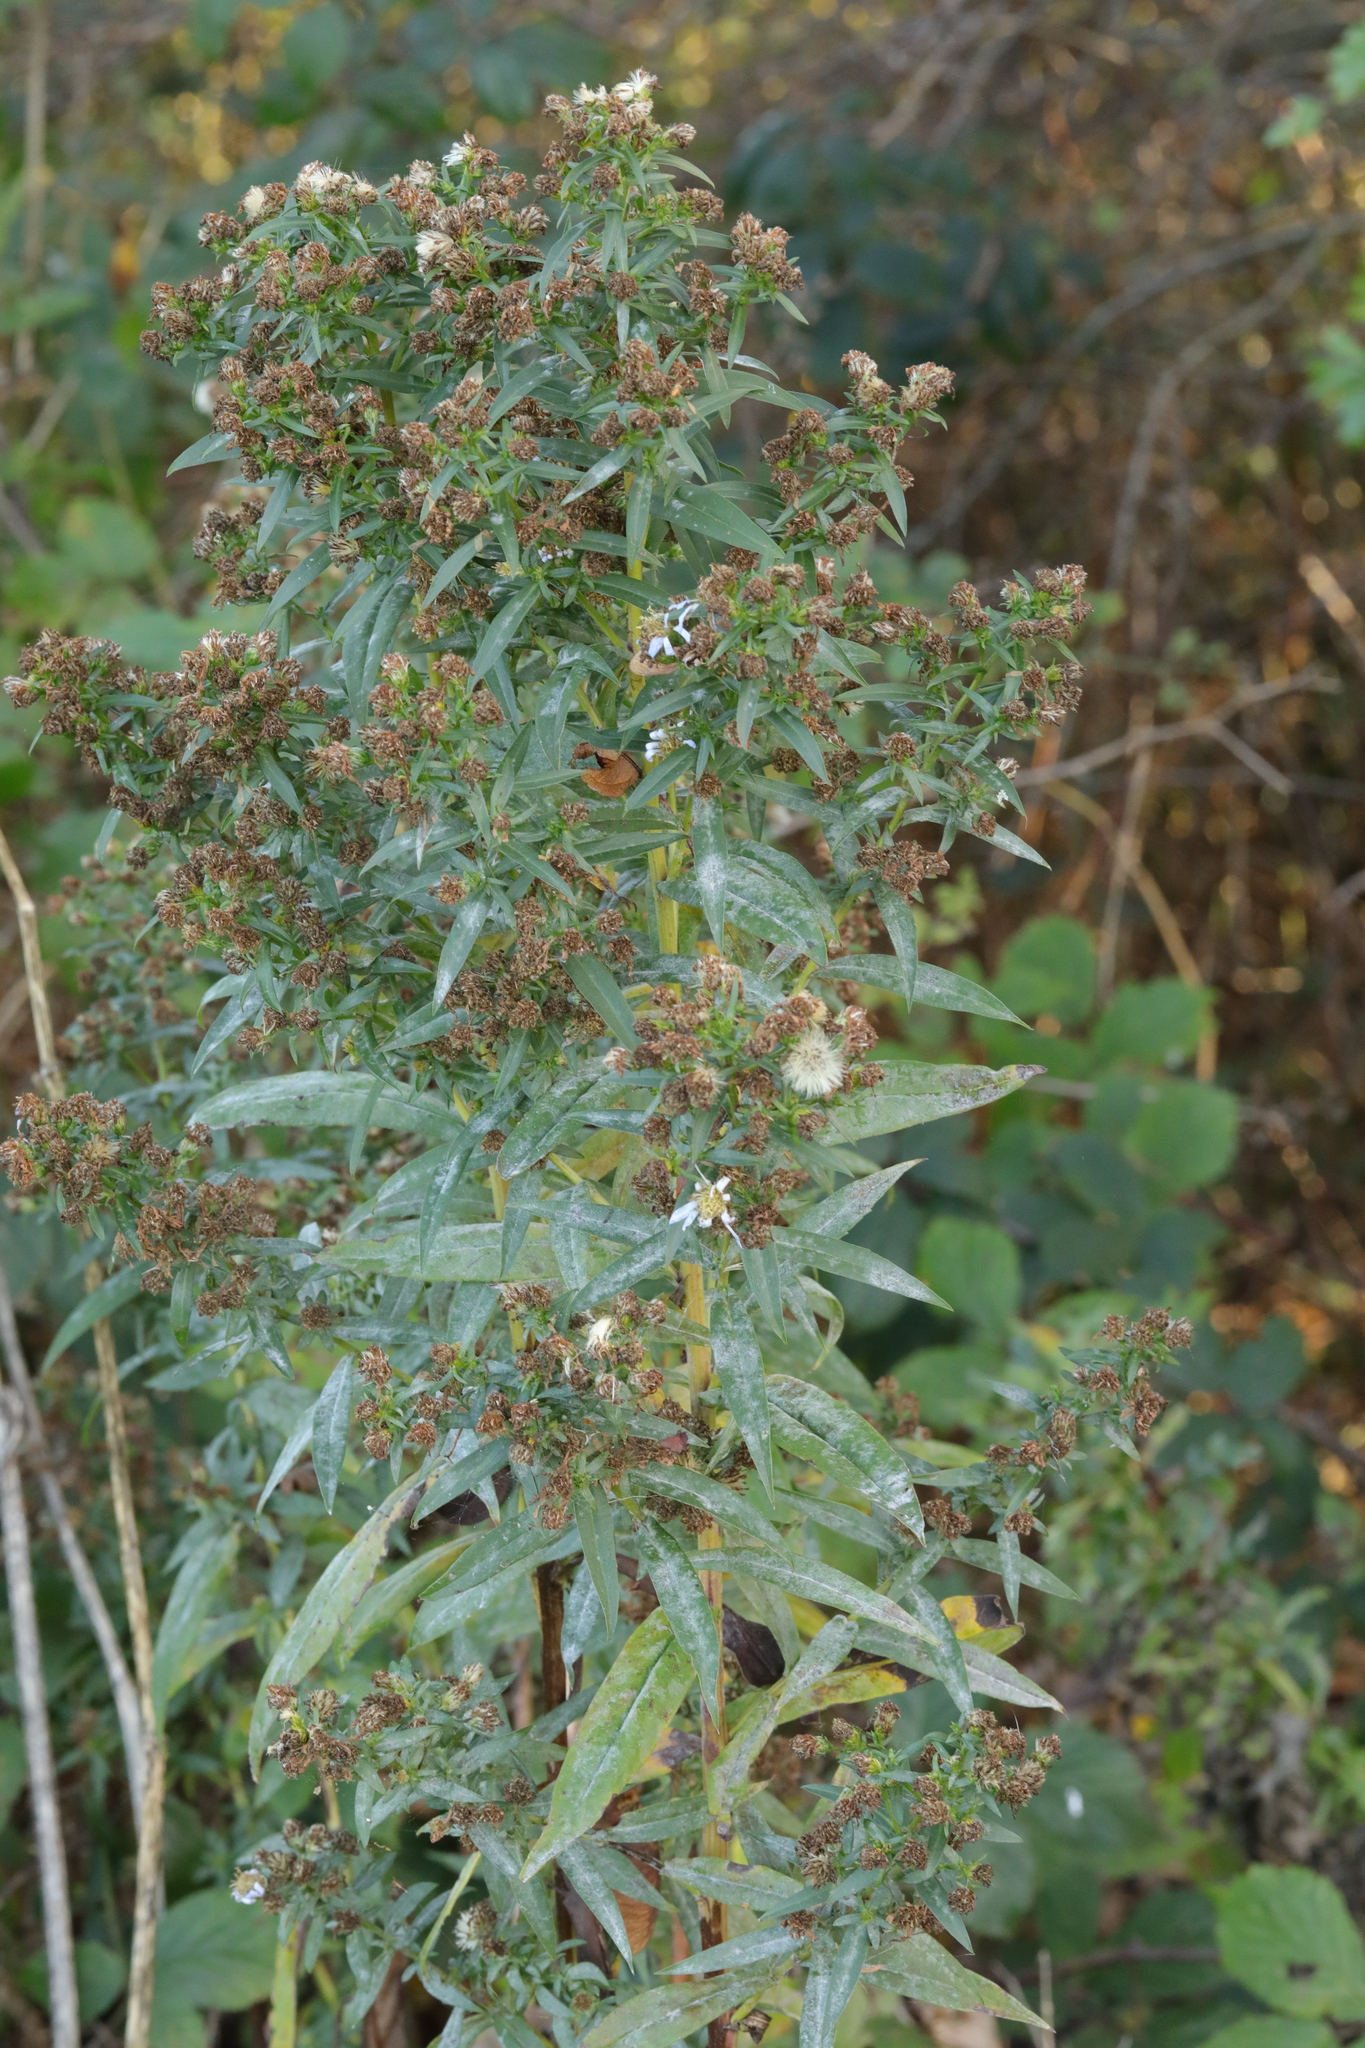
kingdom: Plantae
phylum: Tracheophyta
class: Magnoliopsida
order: Asterales
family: Asteraceae
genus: Symphyotrichum
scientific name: Symphyotrichum
